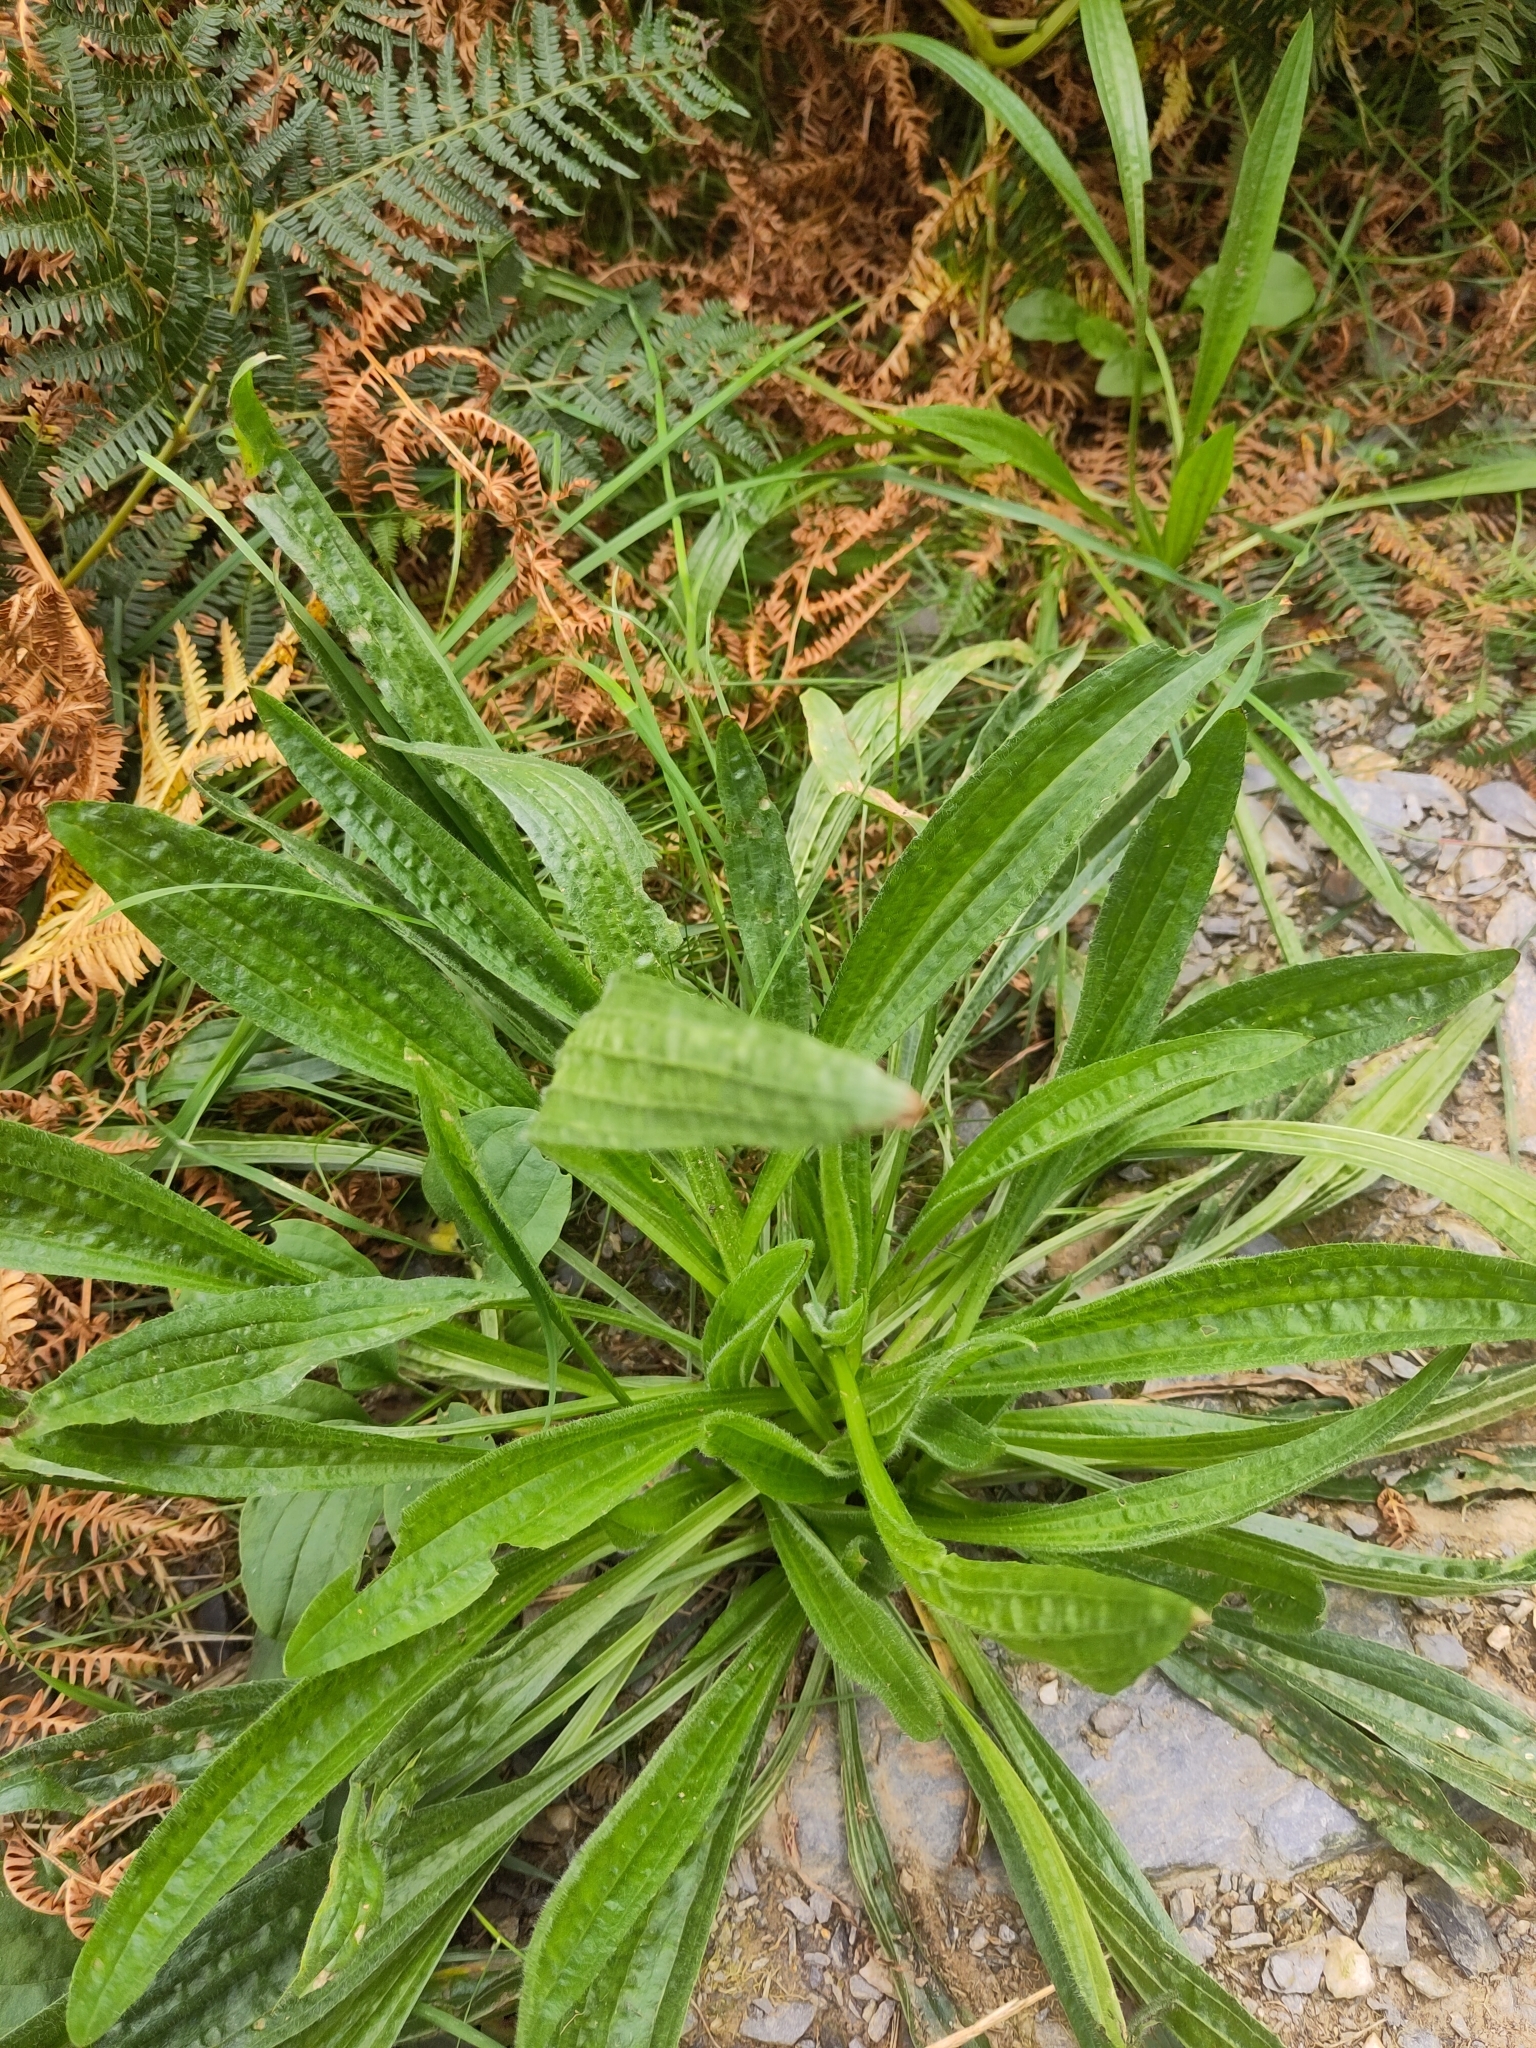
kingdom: Plantae
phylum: Tracheophyta
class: Magnoliopsida
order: Lamiales
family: Plantaginaceae
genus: Plantago
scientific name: Plantago lanceolata
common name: Ribwort plantain
